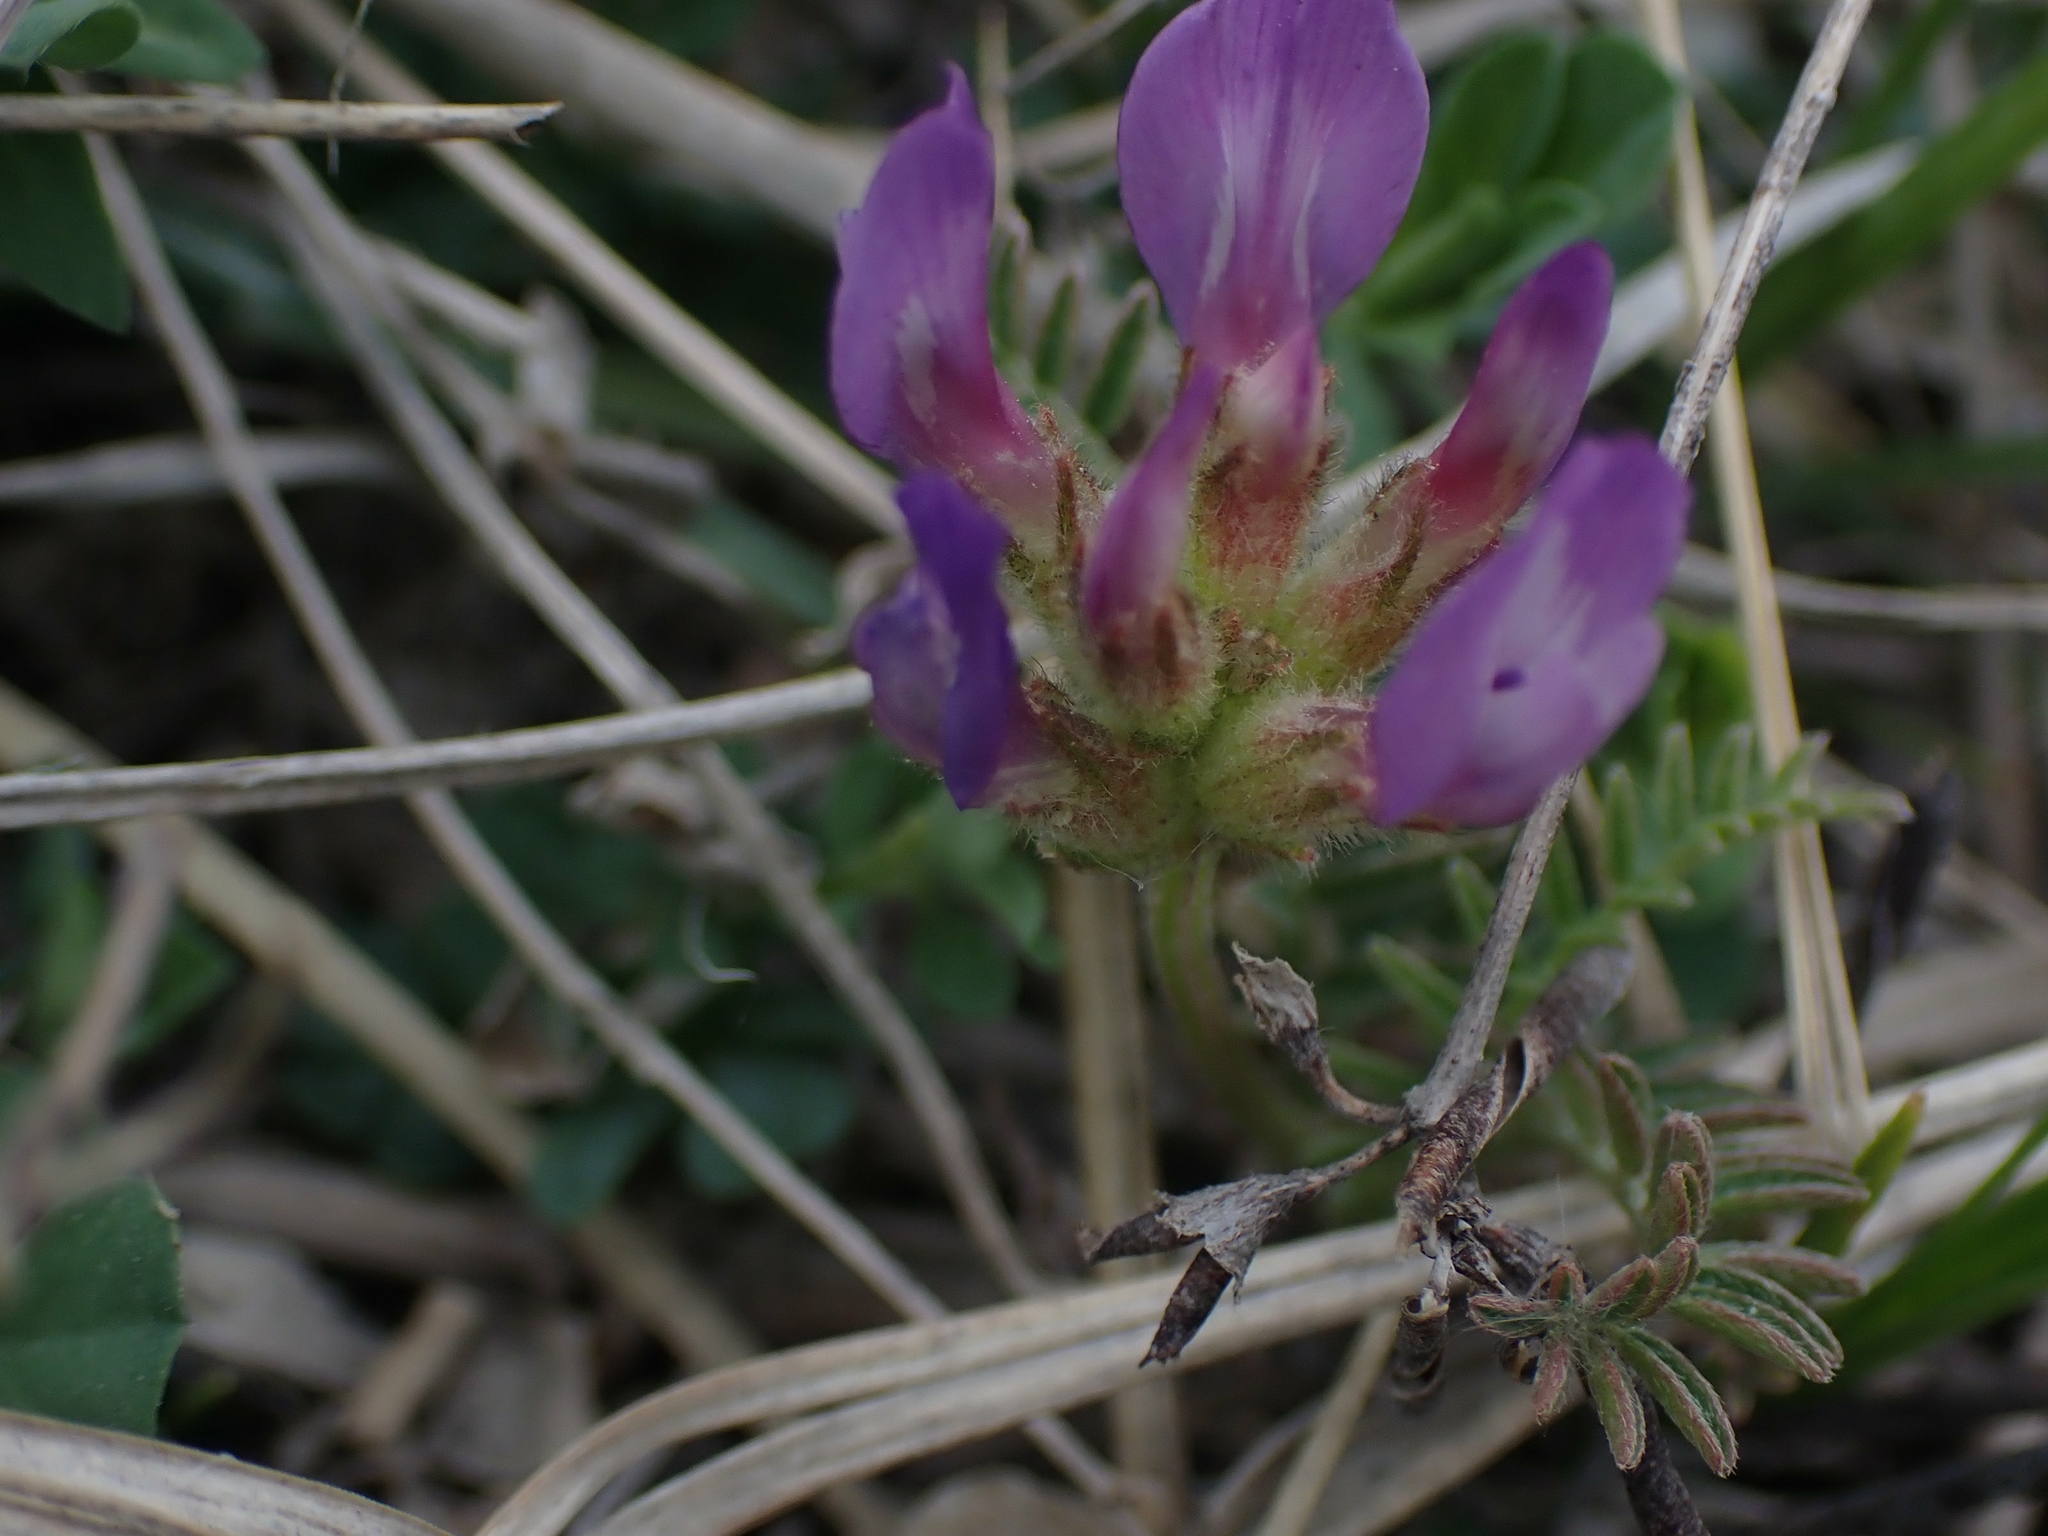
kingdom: Plantae
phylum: Tracheophyta
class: Magnoliopsida
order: Fabales
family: Fabaceae
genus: Astragalus
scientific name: Astragalus agrestis
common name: Field milk-vetch
